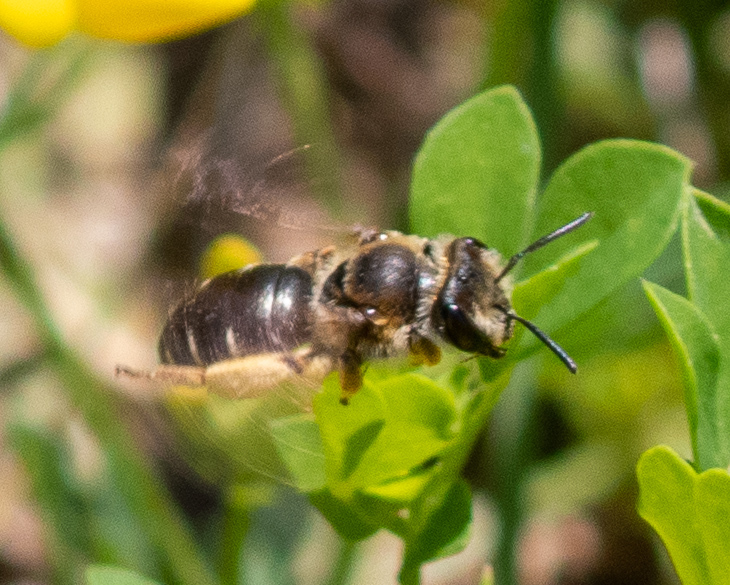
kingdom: Animalia
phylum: Arthropoda
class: Insecta
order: Hymenoptera
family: Andrenidae
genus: Andrena
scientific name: Andrena wilkella
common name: Wilke's mining bee
